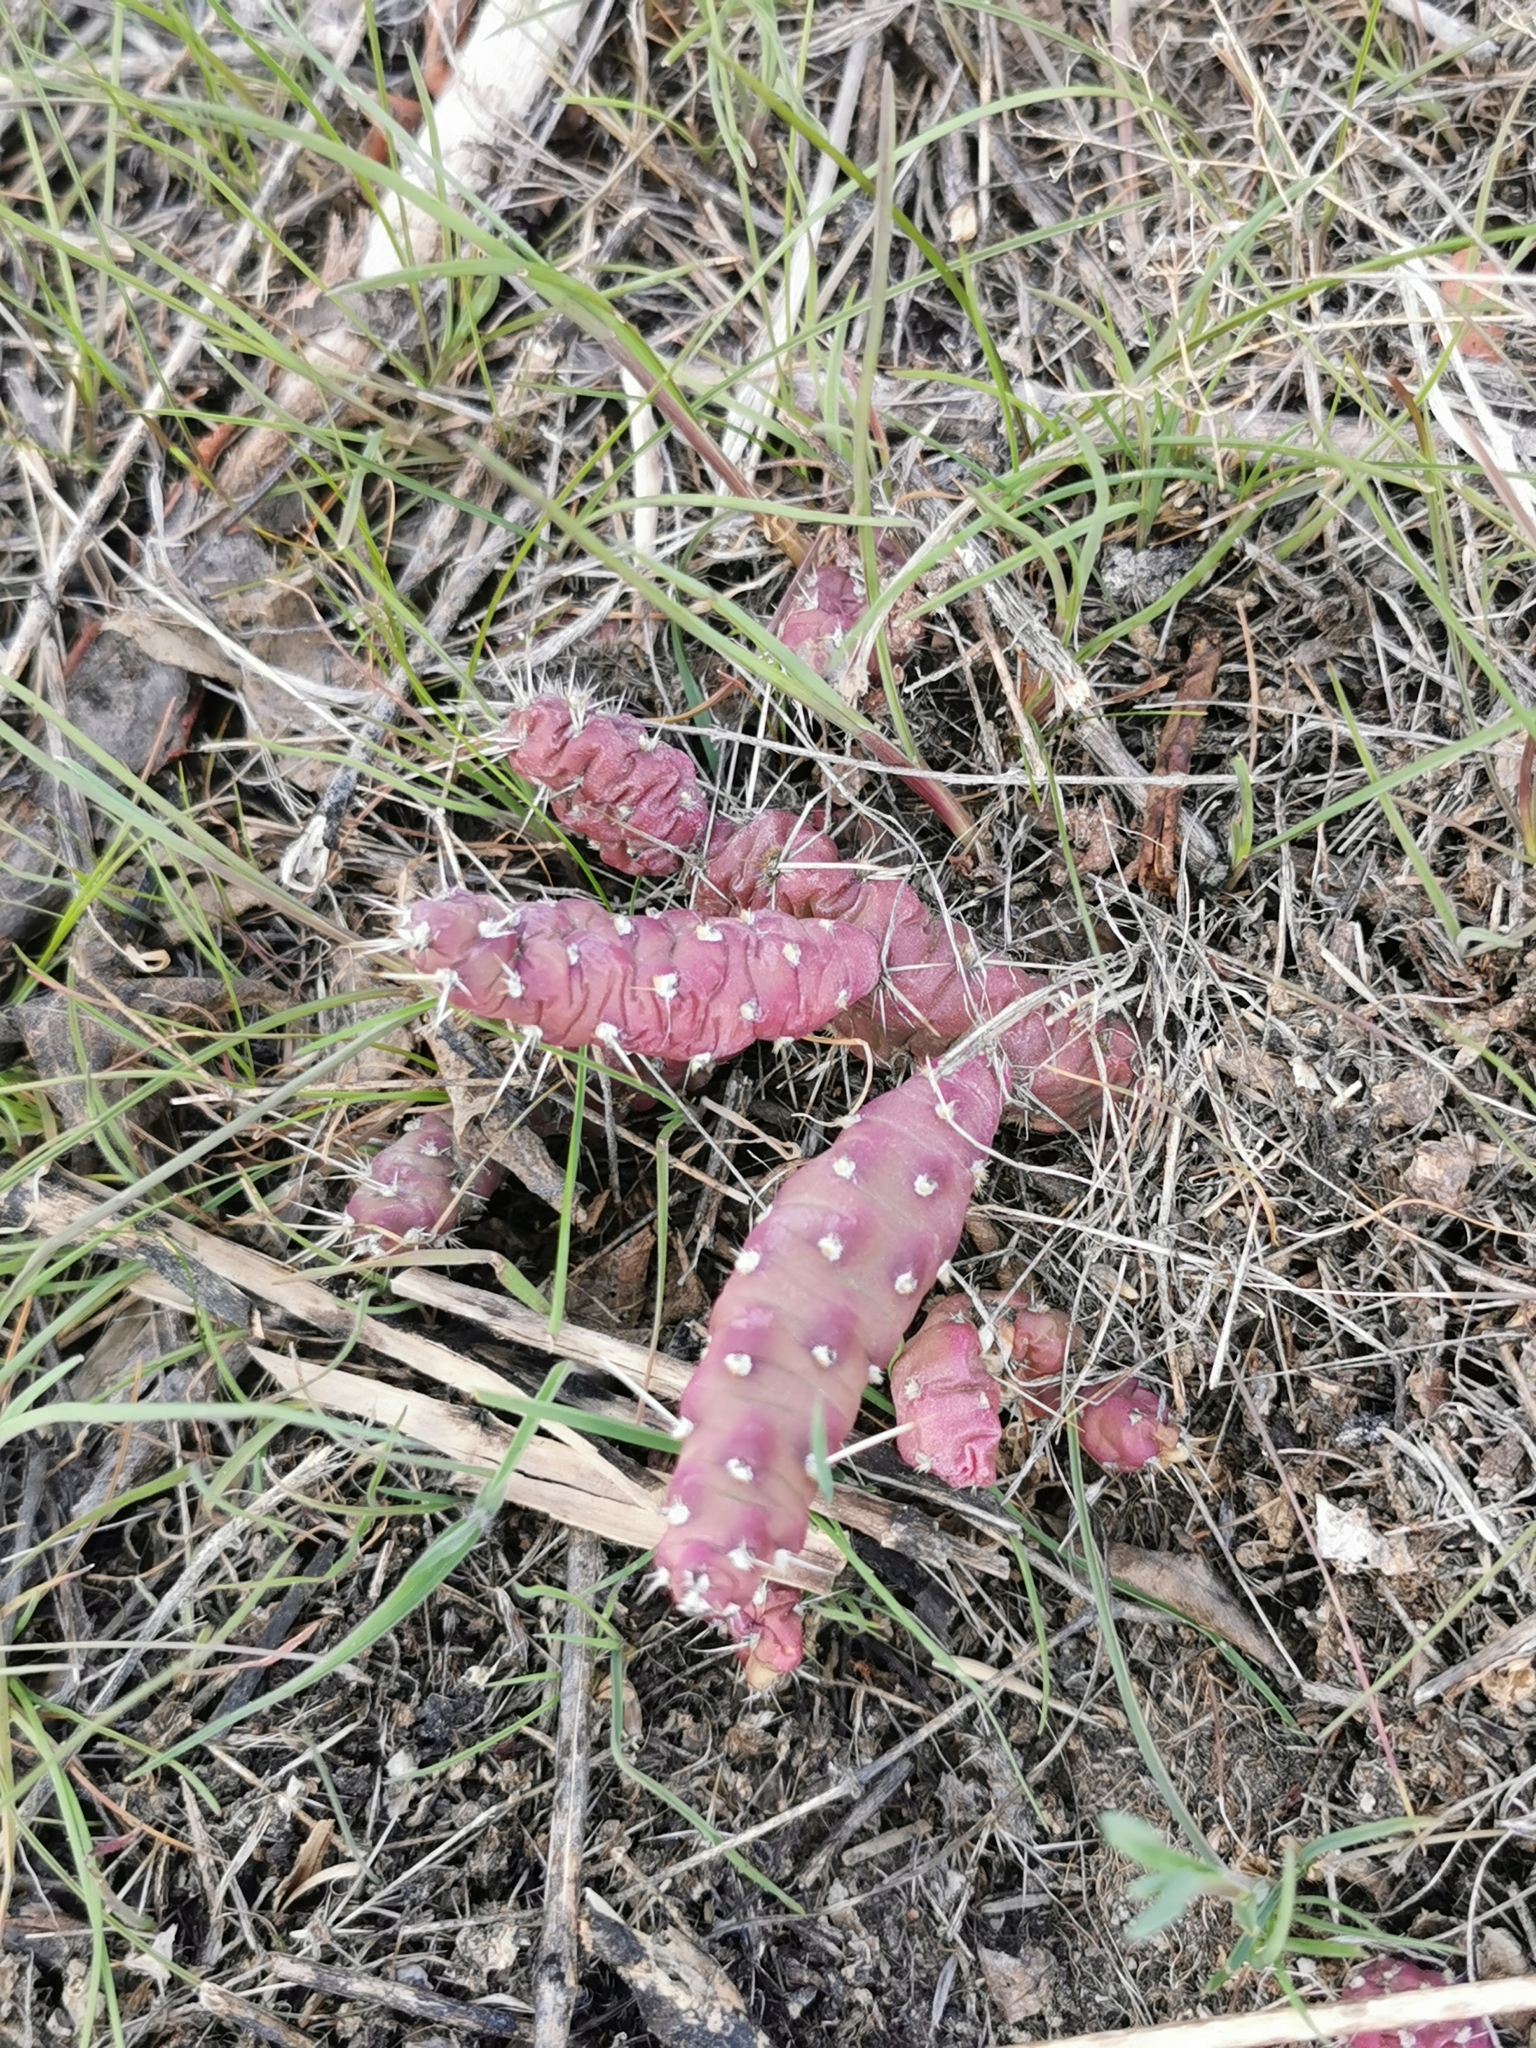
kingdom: Plantae
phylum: Tracheophyta
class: Magnoliopsida
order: Caryophyllales
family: Cactaceae
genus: Opuntia
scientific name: Opuntia fragilis
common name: Brittle cactus
